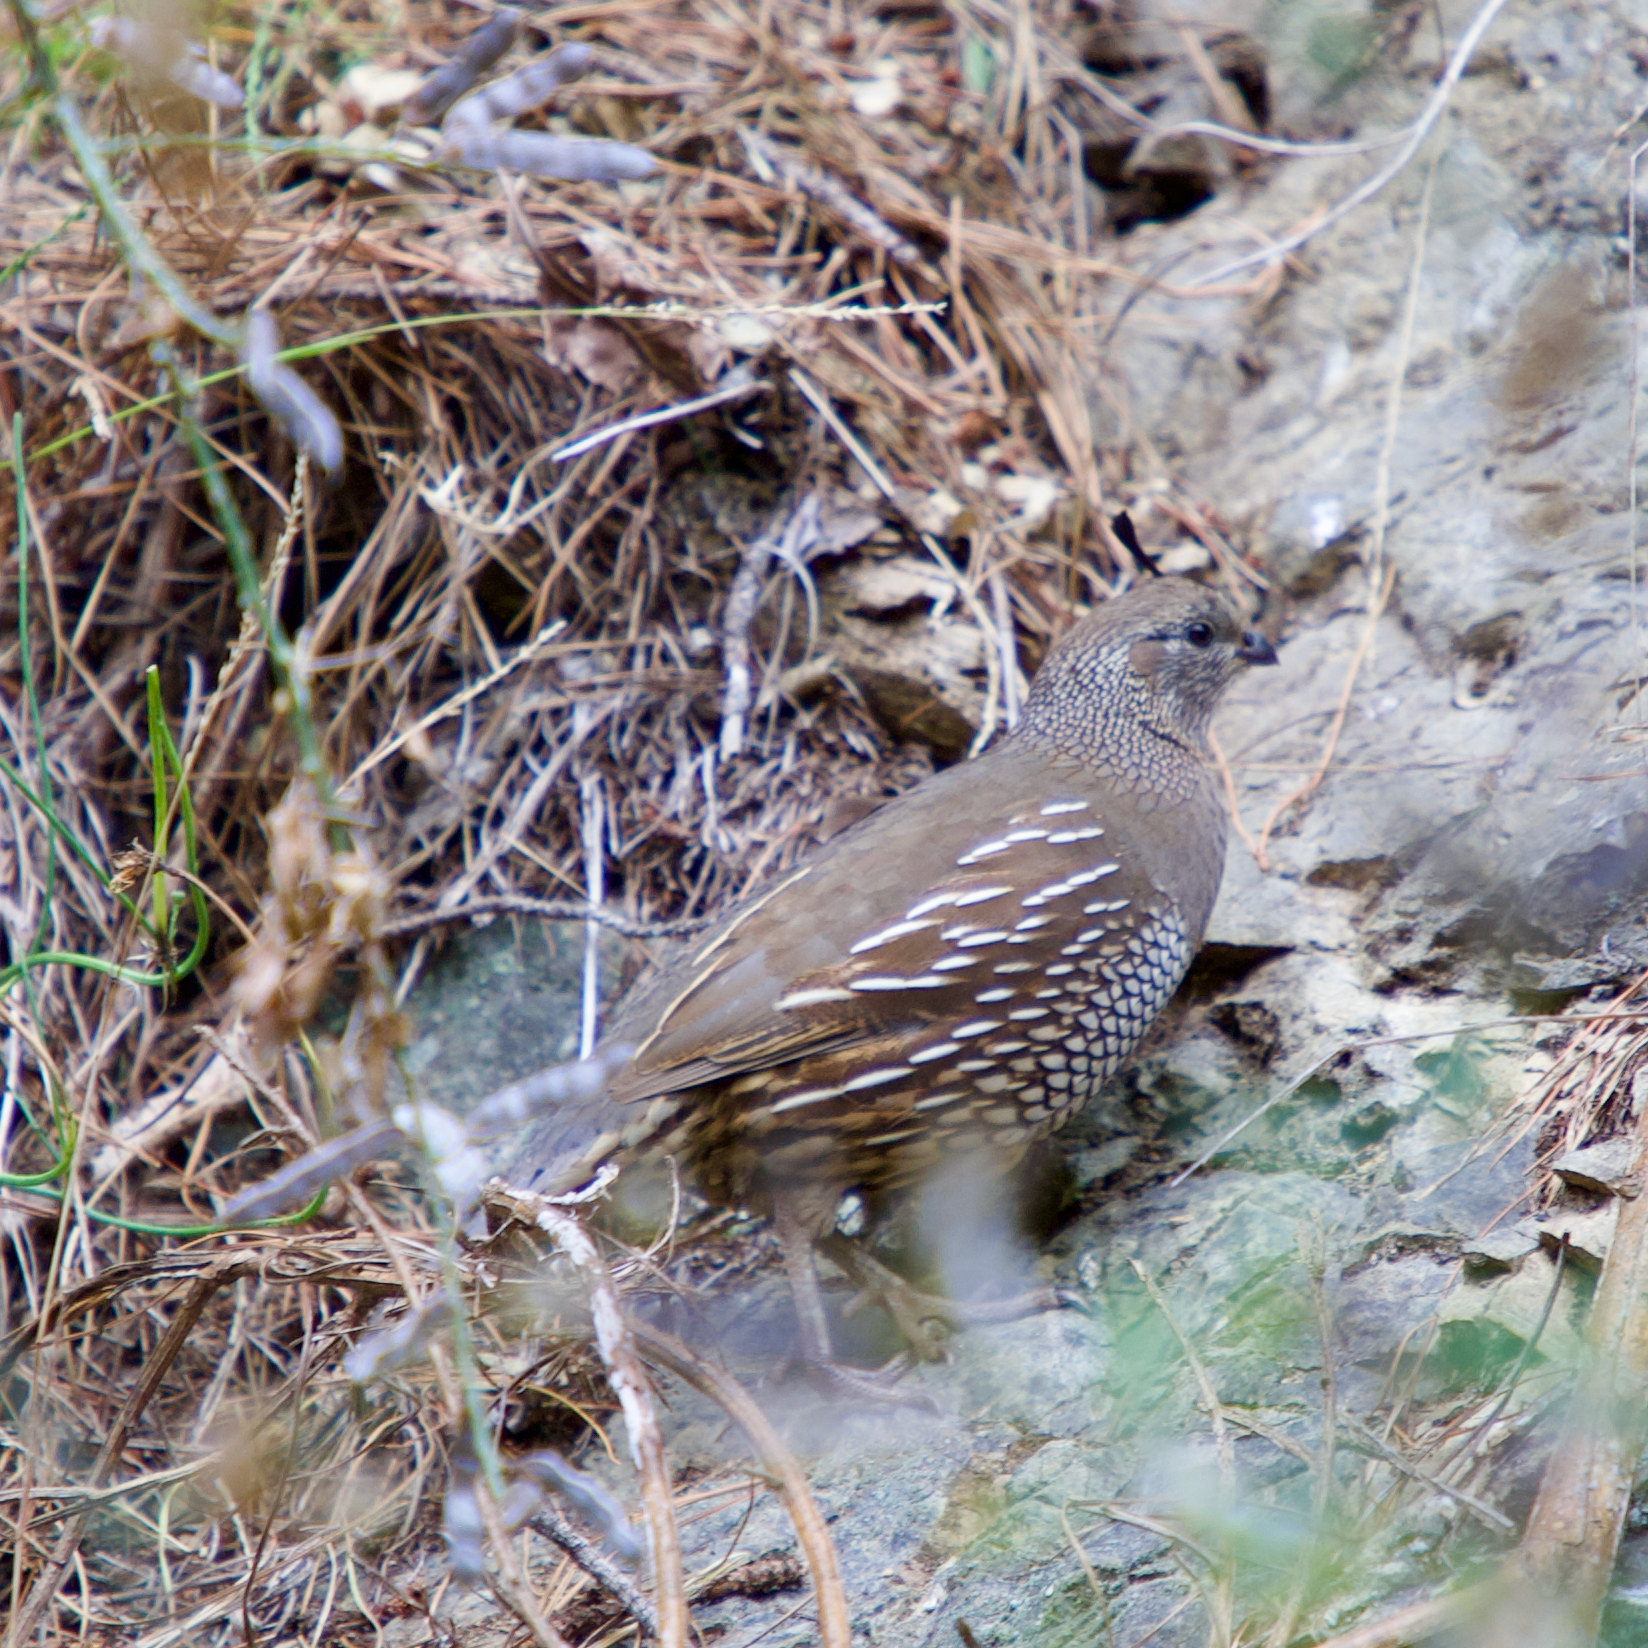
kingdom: Animalia
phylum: Chordata
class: Aves
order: Galliformes
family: Odontophoridae
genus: Callipepla
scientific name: Callipepla californica
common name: California quail
